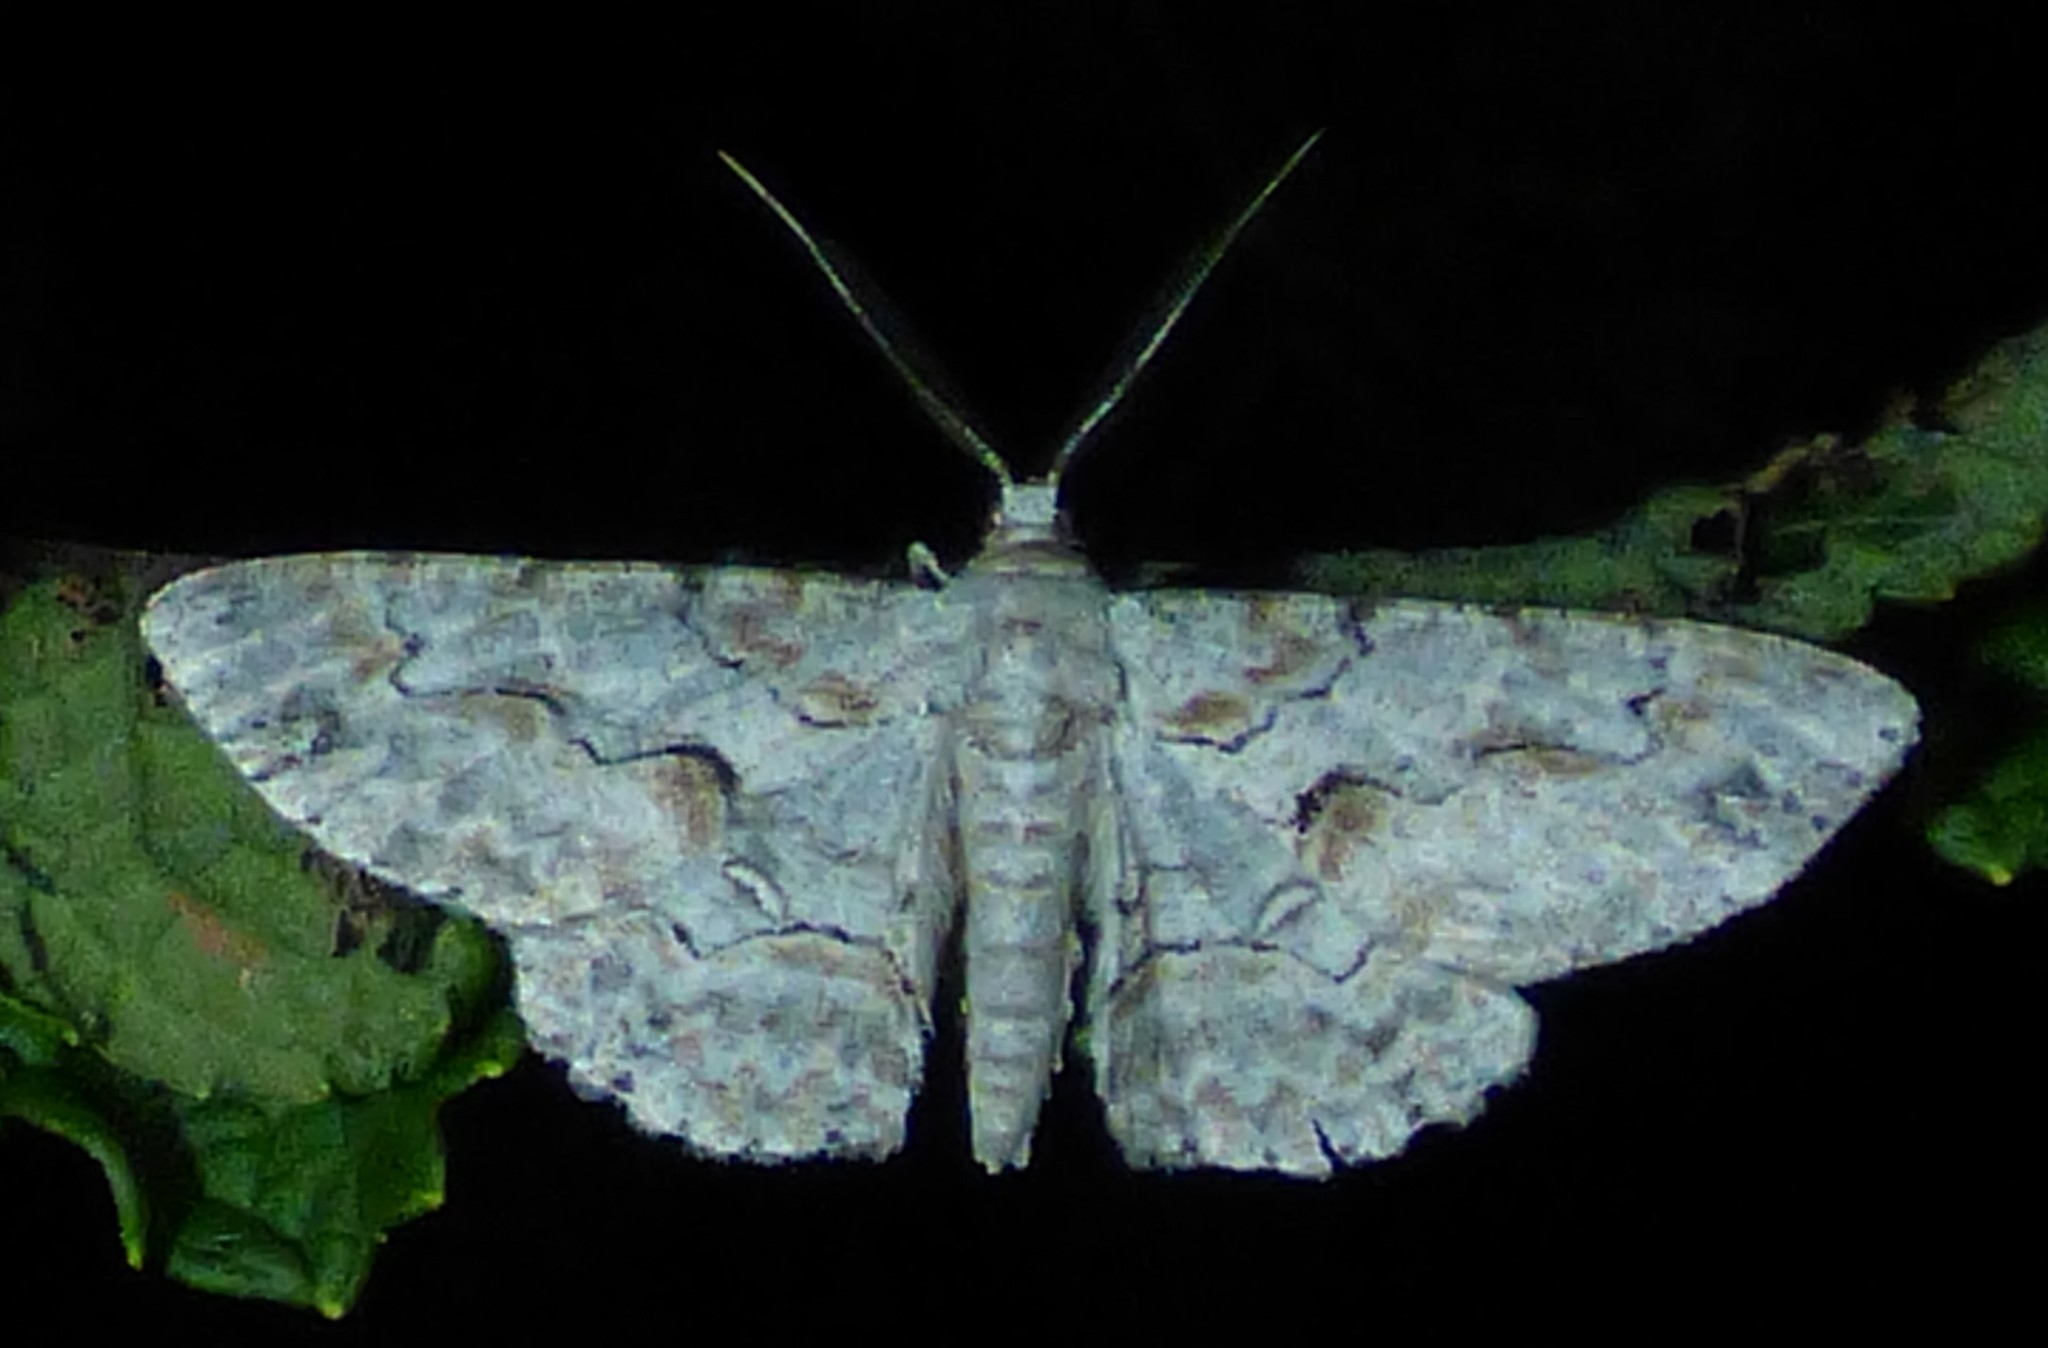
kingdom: Animalia
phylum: Arthropoda
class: Insecta
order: Lepidoptera
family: Geometridae
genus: Iridopsis
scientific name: Iridopsis defectaria
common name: Brown-shaded gray
